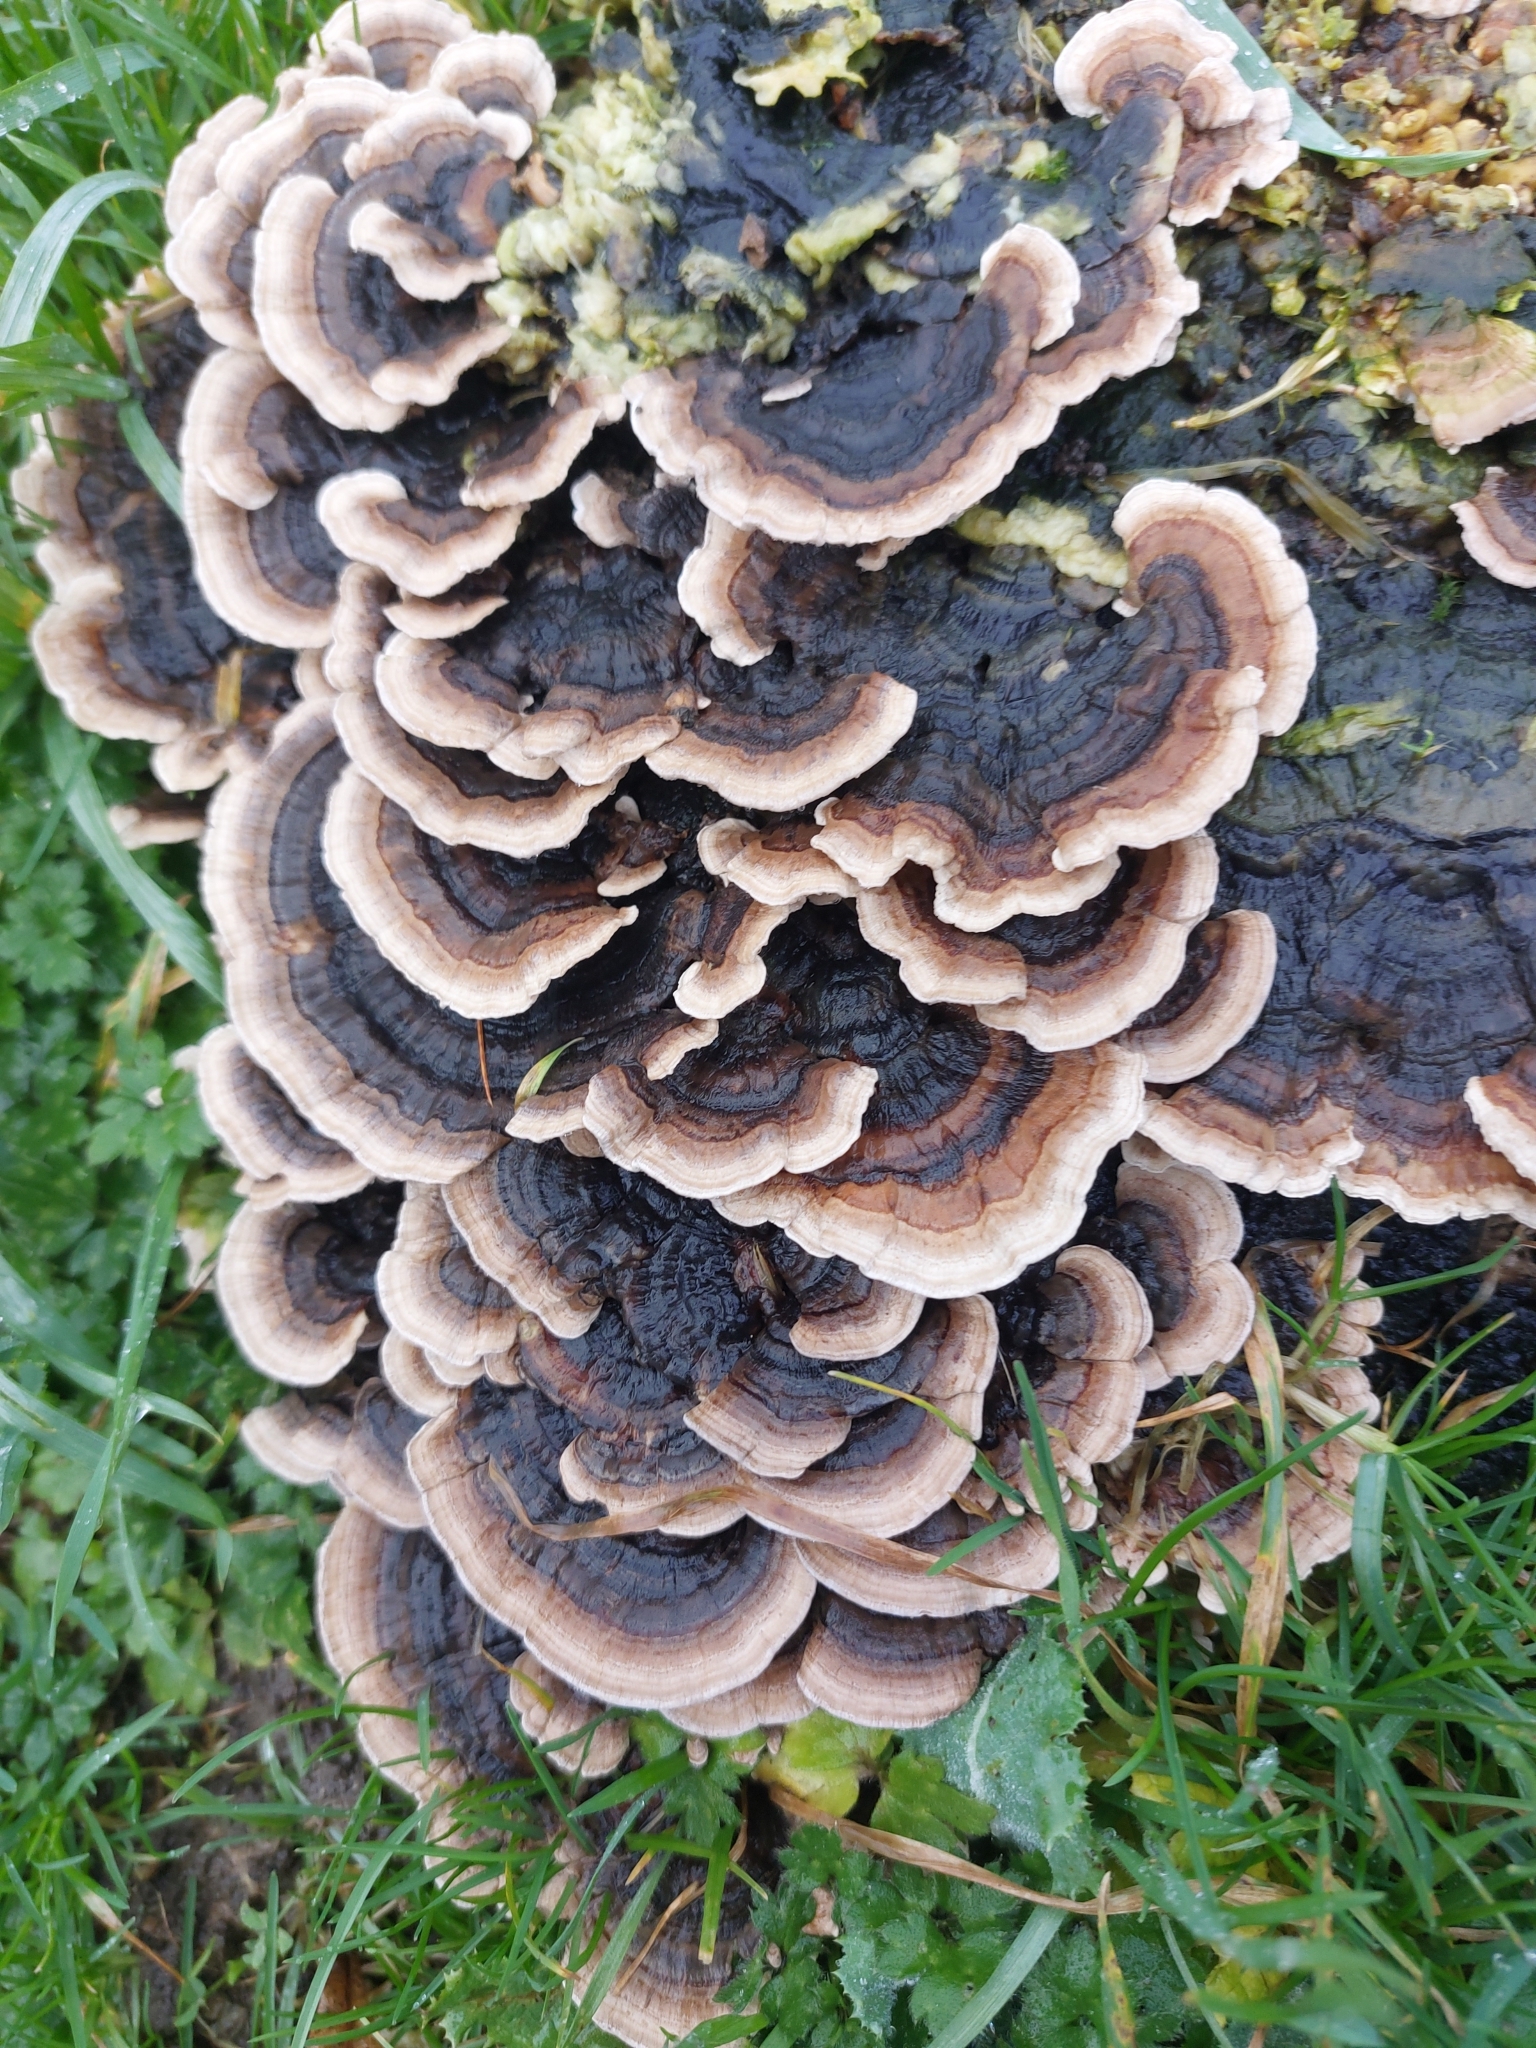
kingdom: Fungi
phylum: Basidiomycota
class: Agaricomycetes
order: Polyporales
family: Polyporaceae
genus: Trametes
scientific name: Trametes versicolor
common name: Turkeytail
